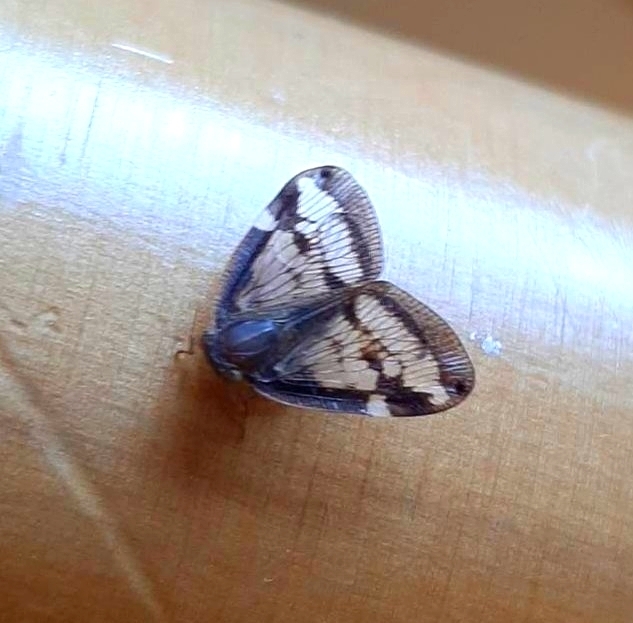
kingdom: Animalia
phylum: Arthropoda
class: Insecta
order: Hemiptera
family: Ricaniidae
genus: Scolypopa
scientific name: Scolypopa australis
